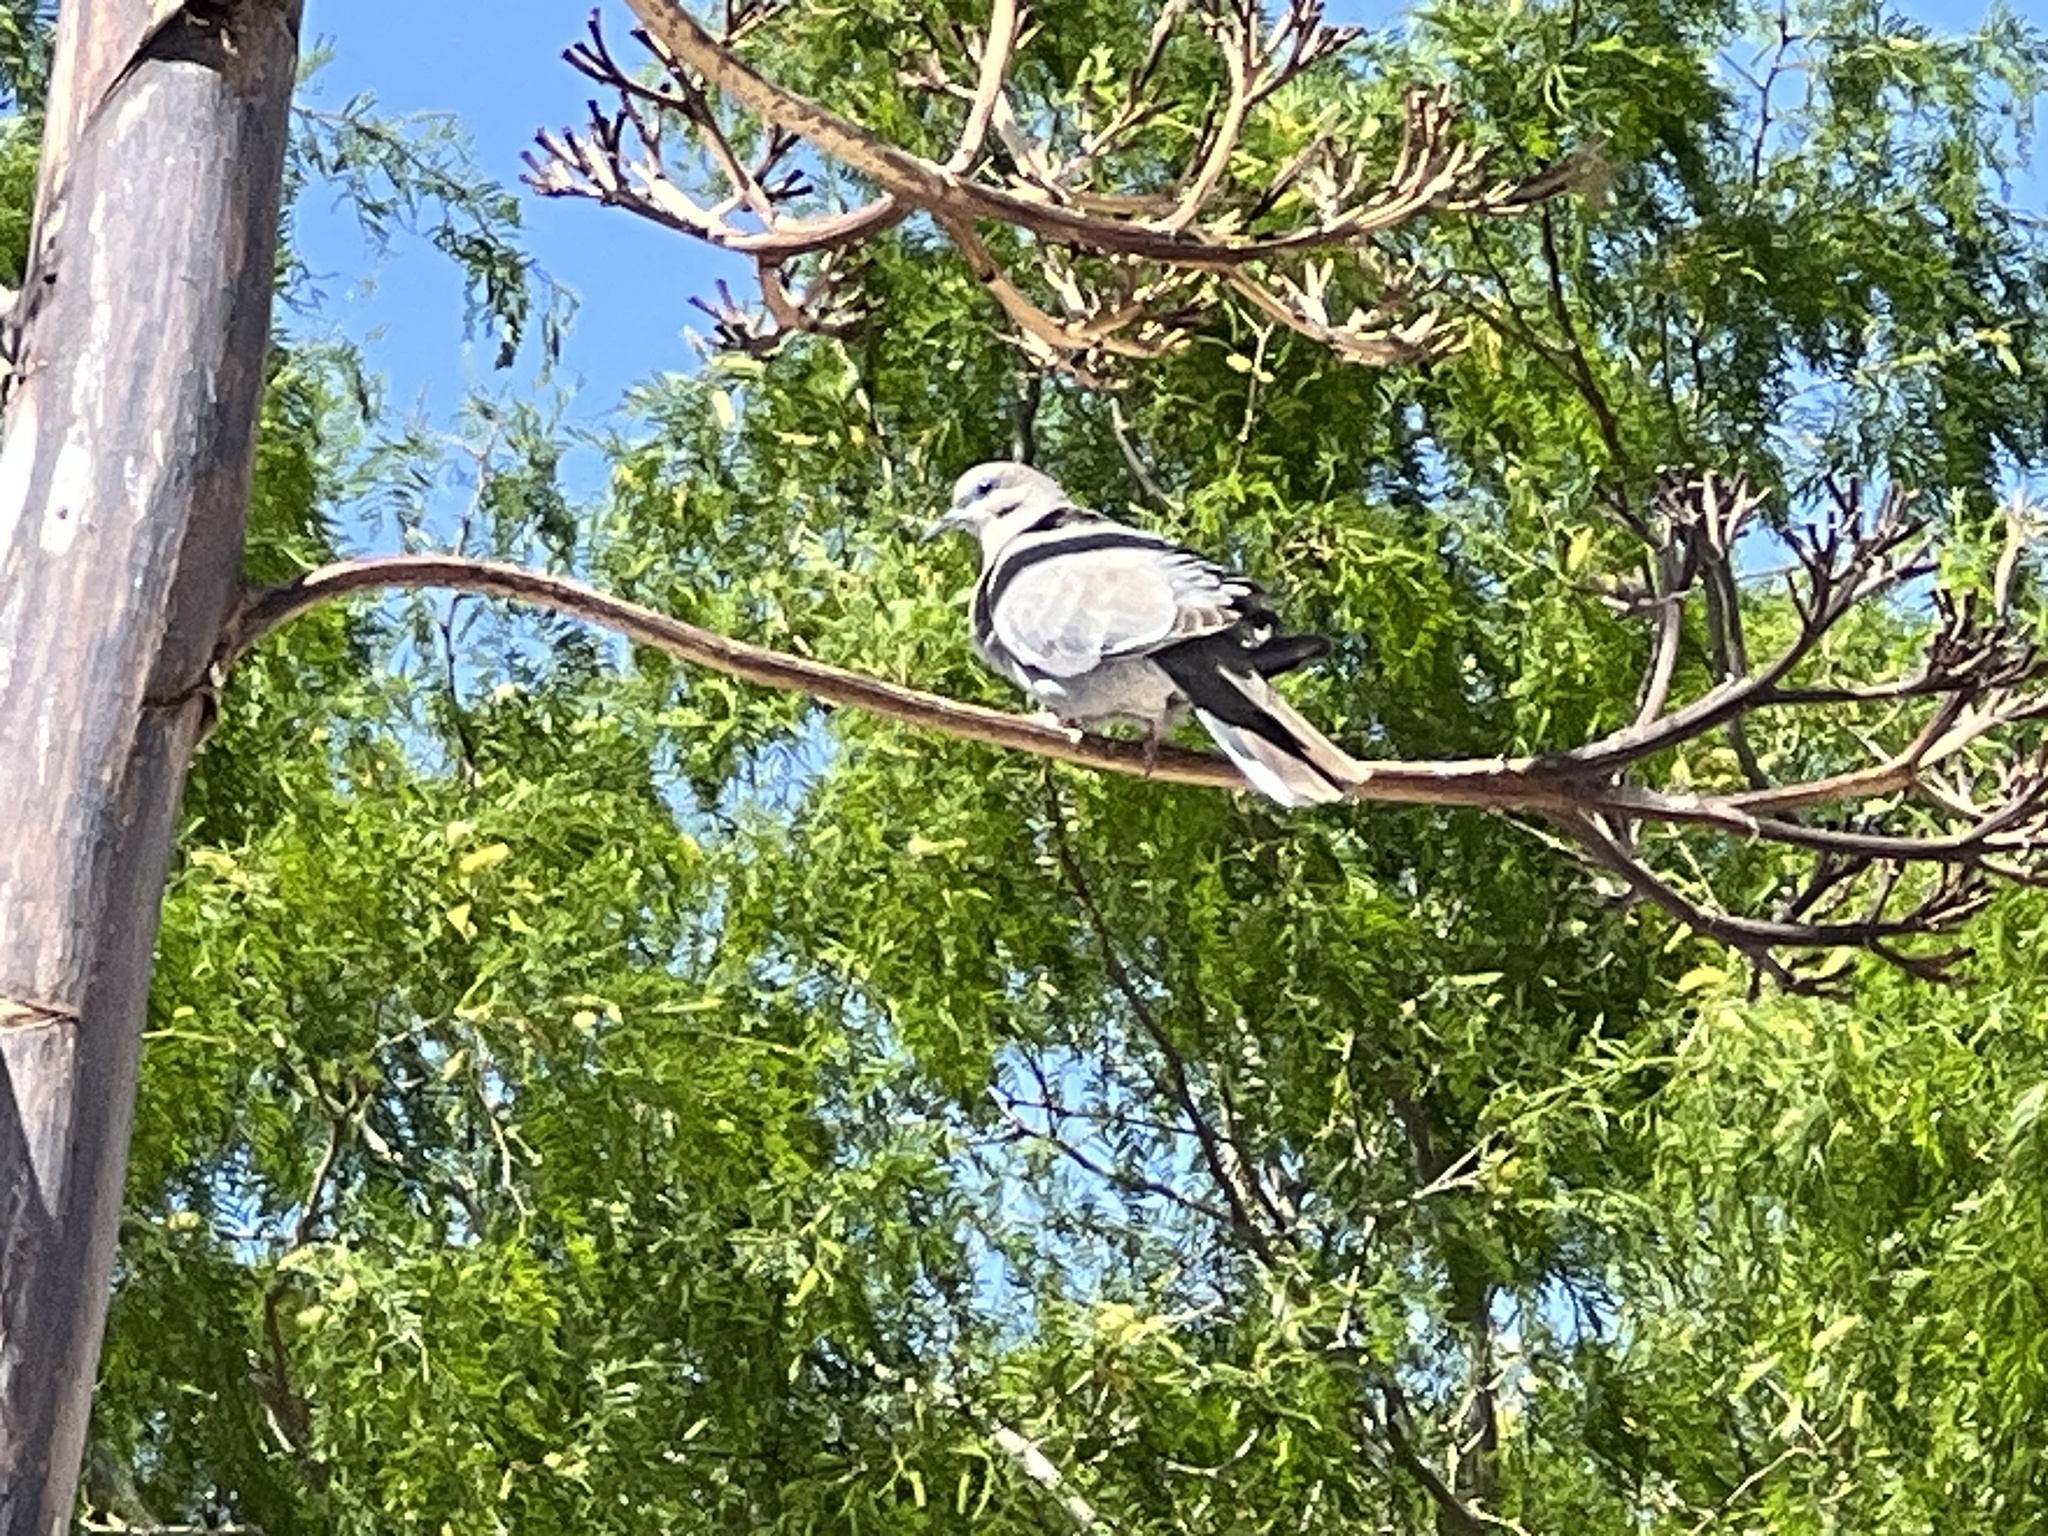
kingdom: Animalia
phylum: Chordata
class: Aves
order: Columbiformes
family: Columbidae
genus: Zenaida
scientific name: Zenaida asiatica
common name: White-winged dove
